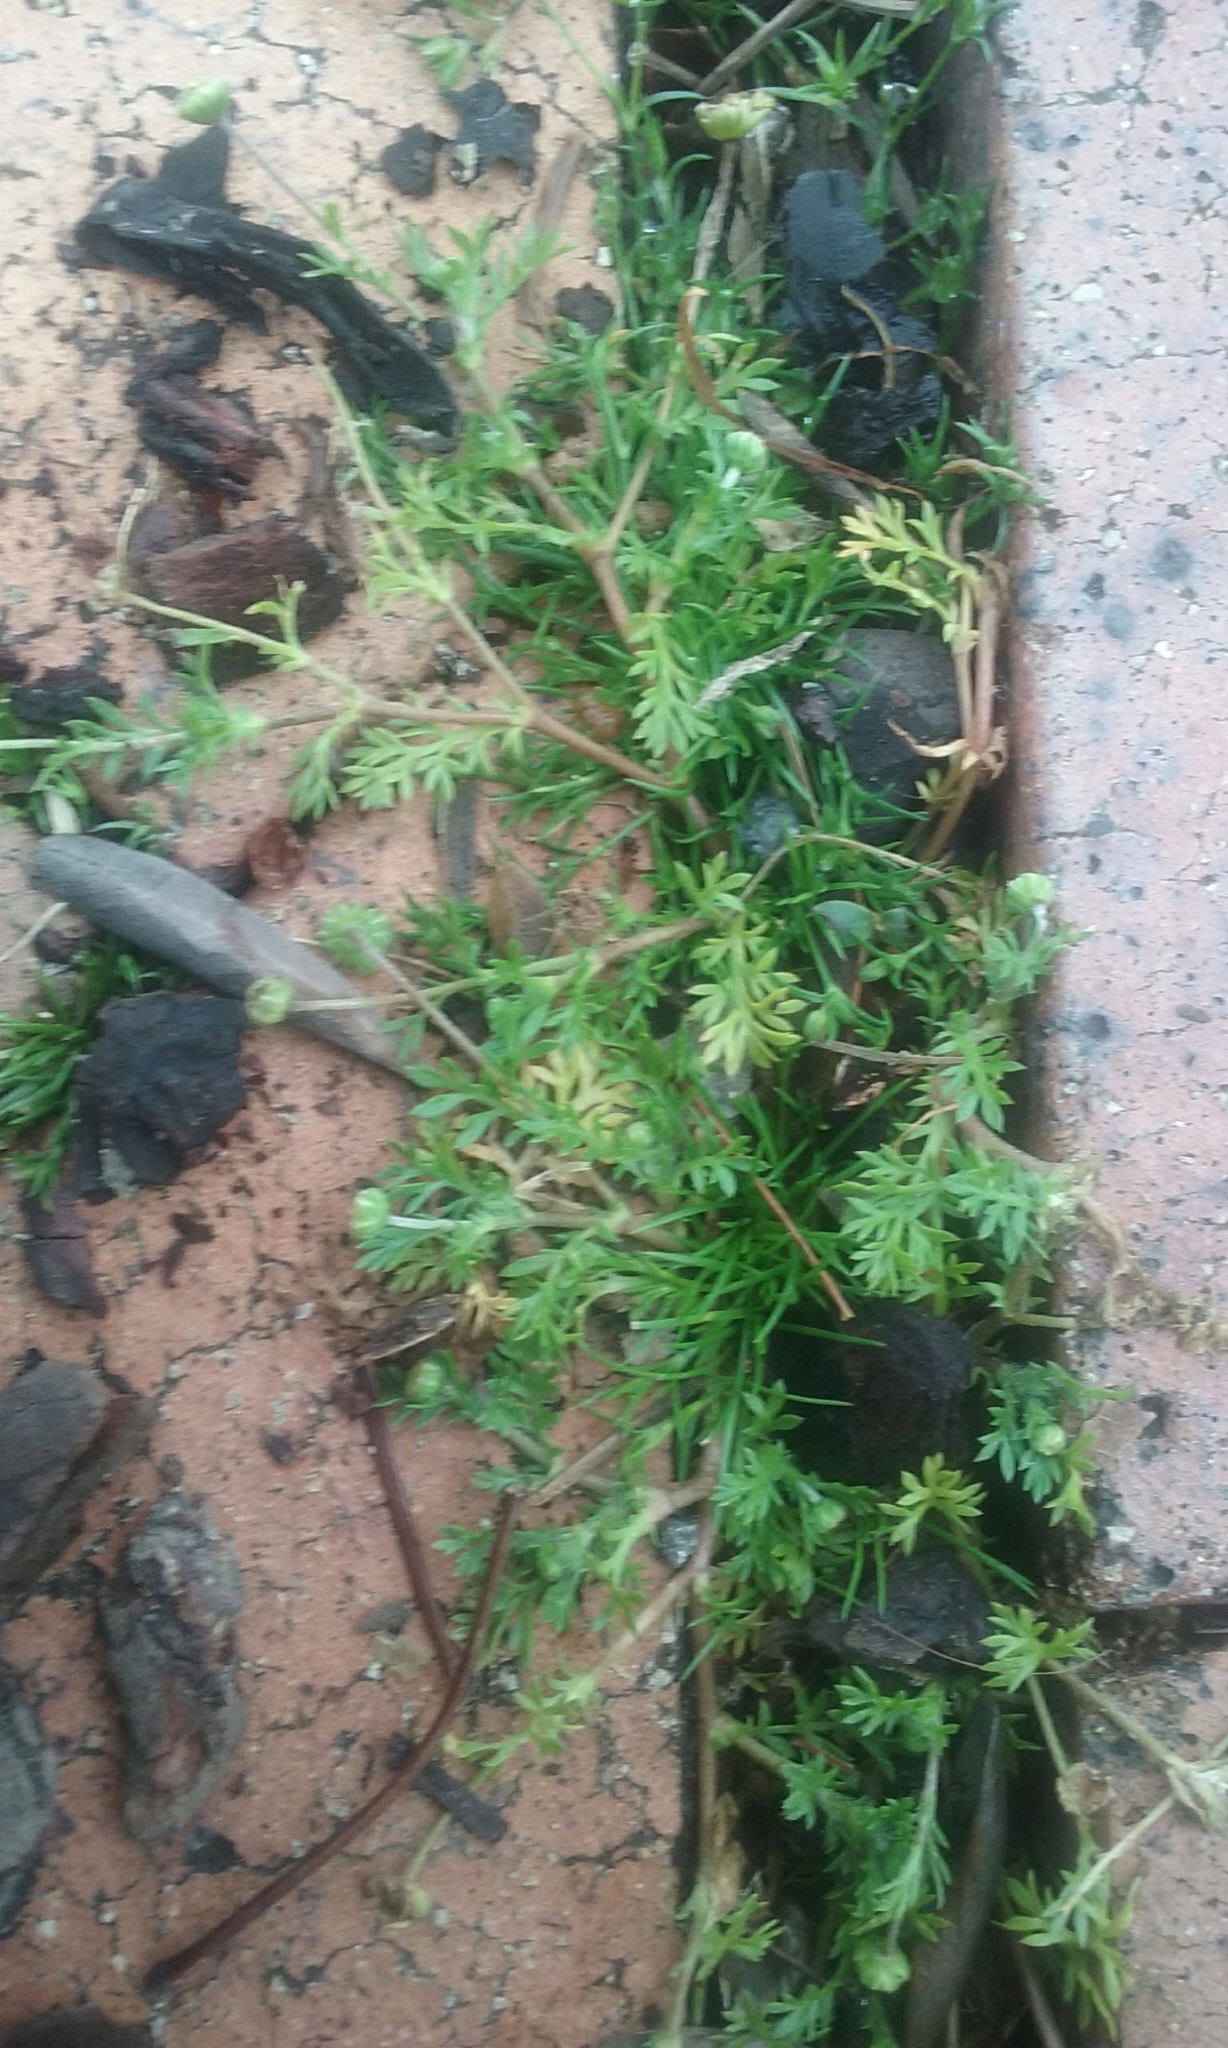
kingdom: Plantae
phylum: Tracheophyta
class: Magnoliopsida
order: Asterales
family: Asteraceae
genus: Cotula
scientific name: Cotula australis
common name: Australian waterbuttons
